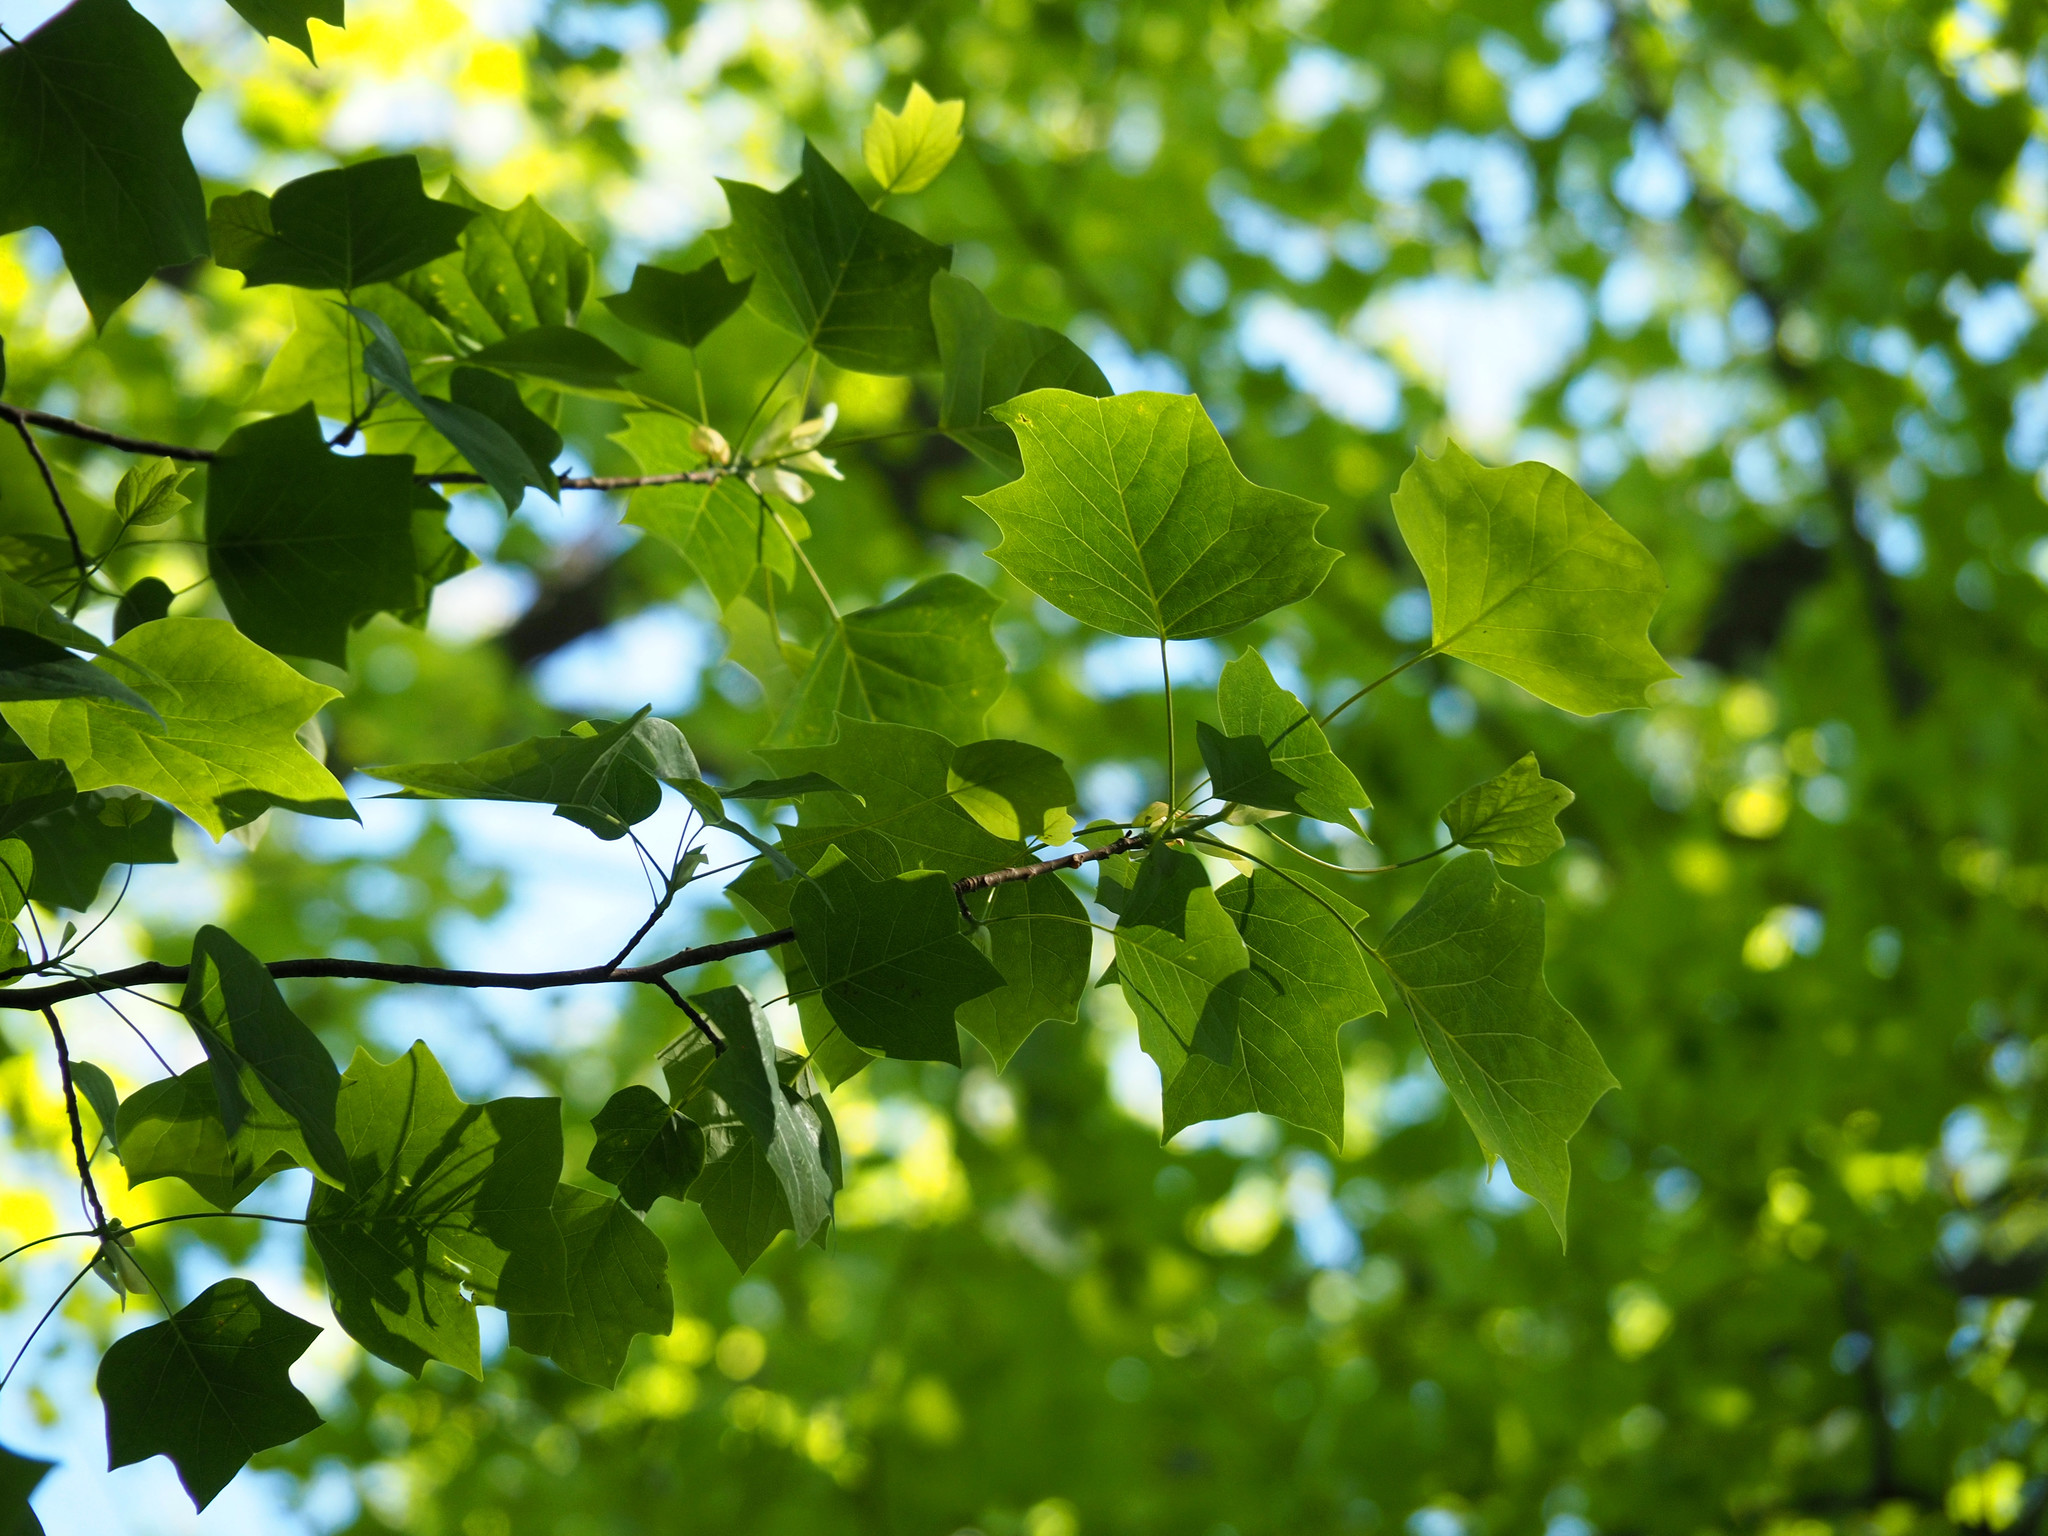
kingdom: Plantae
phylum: Tracheophyta
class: Magnoliopsida
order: Magnoliales
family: Magnoliaceae
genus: Liriodendron
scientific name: Liriodendron tulipifera
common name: Tulip tree
